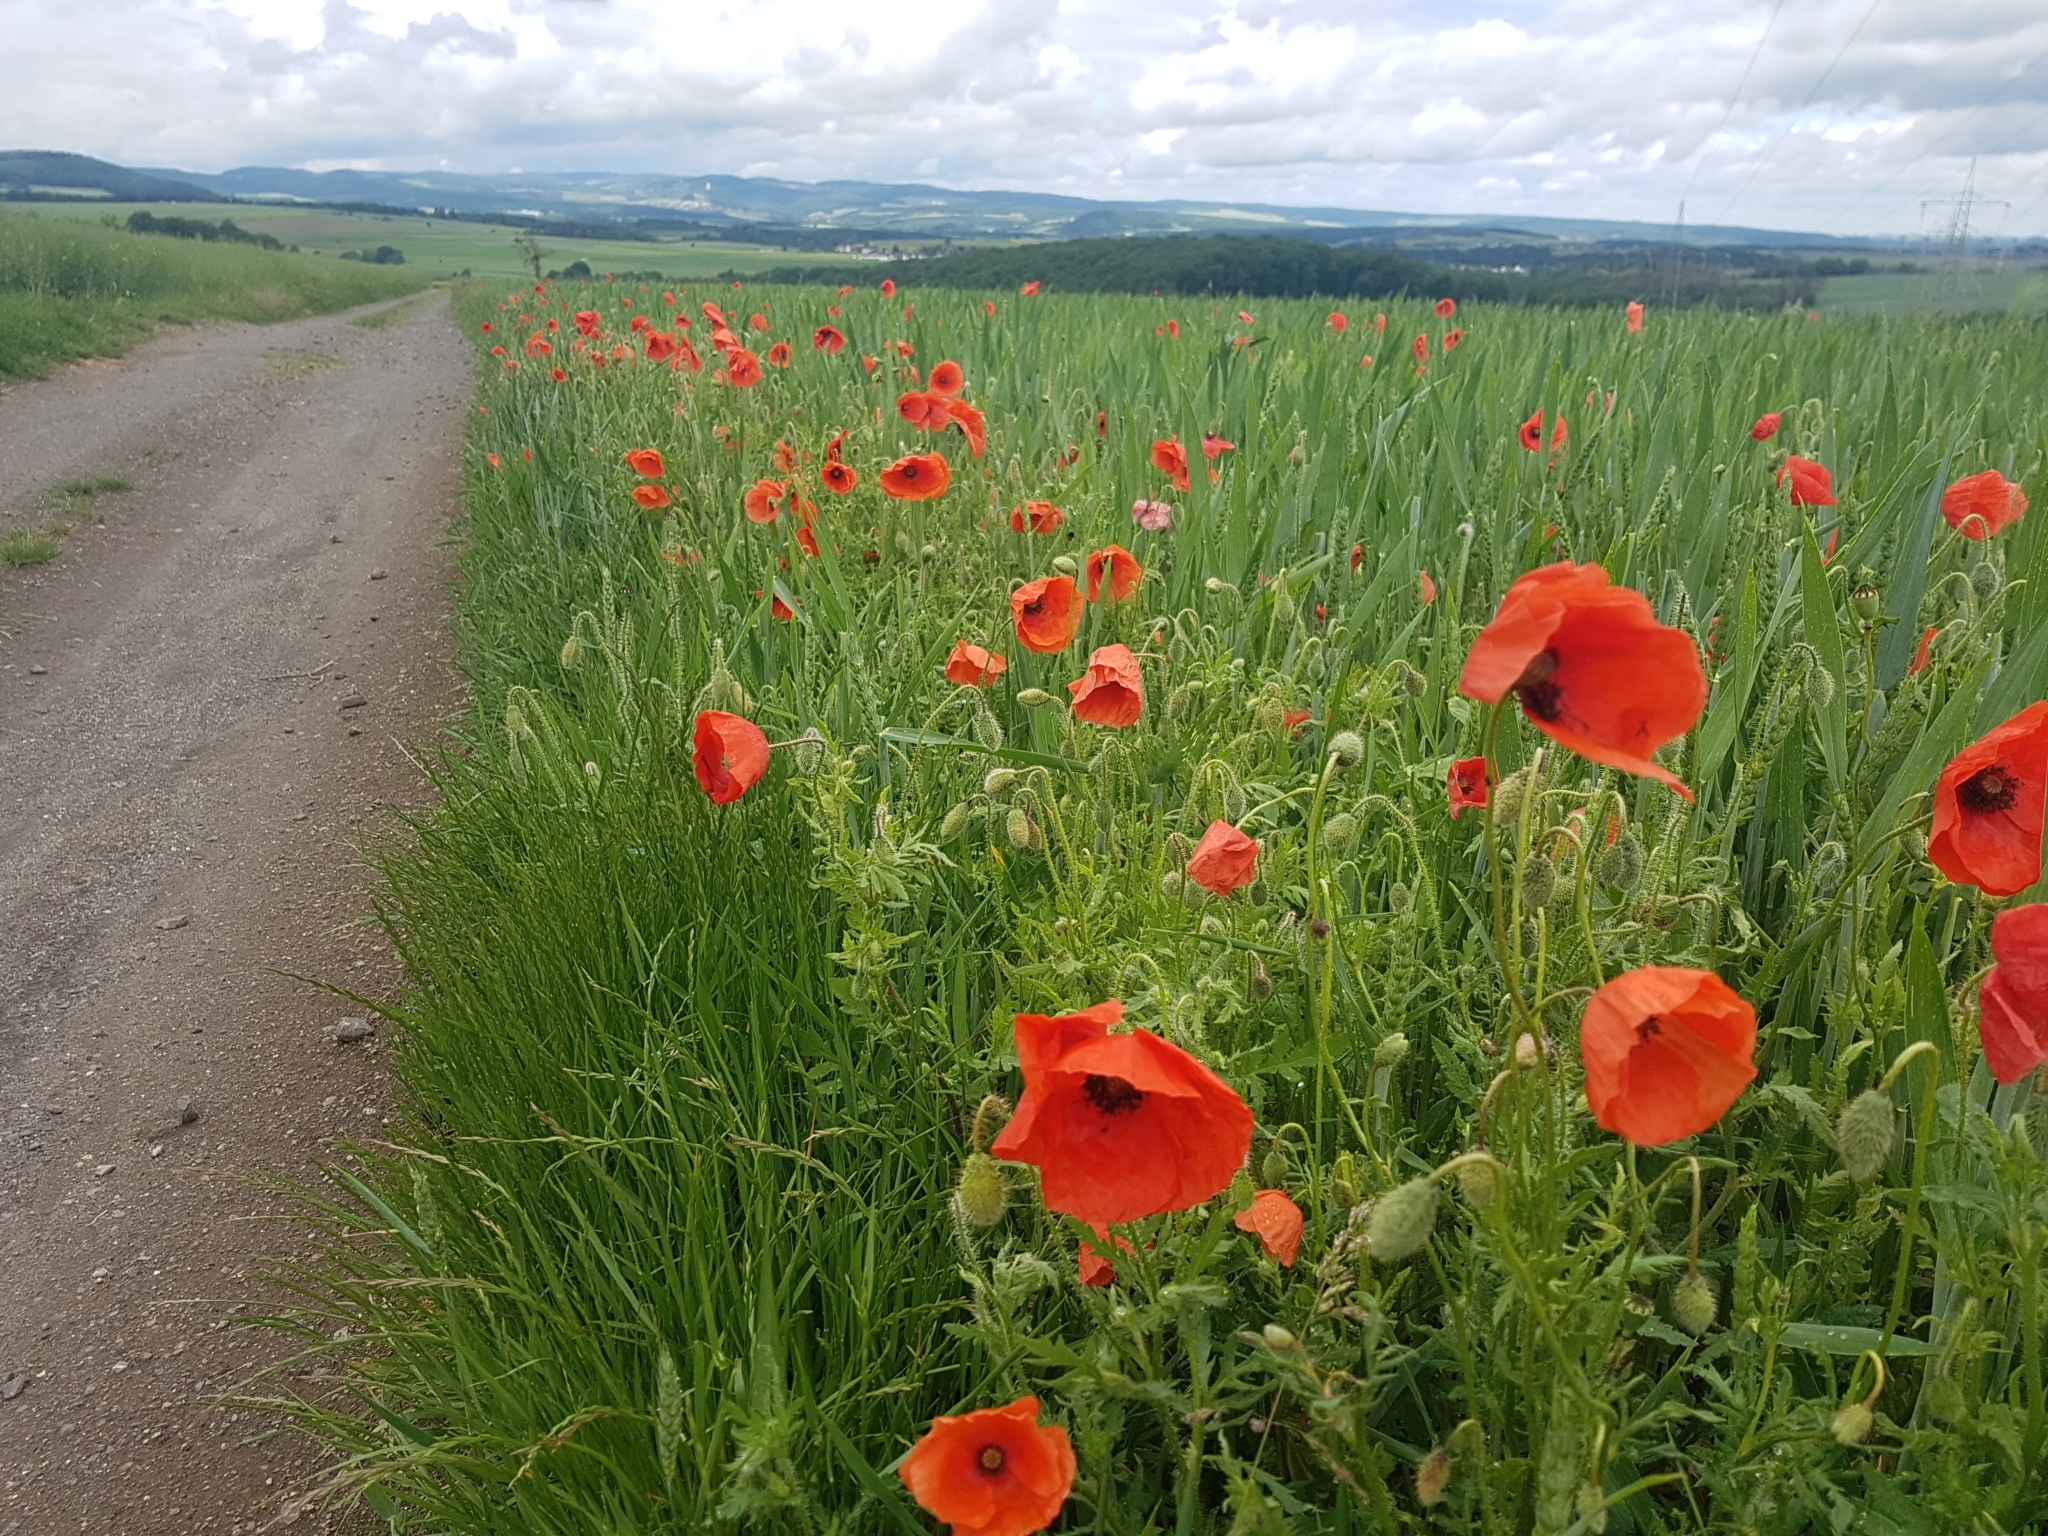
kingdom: Plantae
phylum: Tracheophyta
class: Magnoliopsida
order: Ranunculales
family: Papaveraceae
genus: Papaver
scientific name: Papaver rhoeas
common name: Corn poppy
